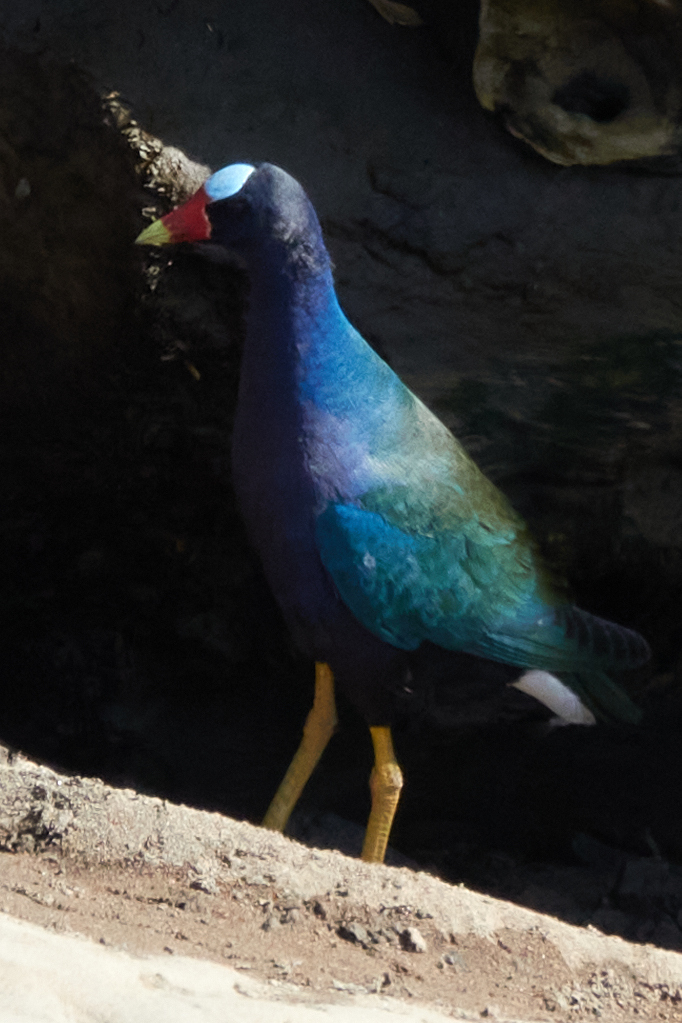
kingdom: Animalia
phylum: Chordata
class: Aves
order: Gruiformes
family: Rallidae
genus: Porphyrio
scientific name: Porphyrio martinica
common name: Purple gallinule
